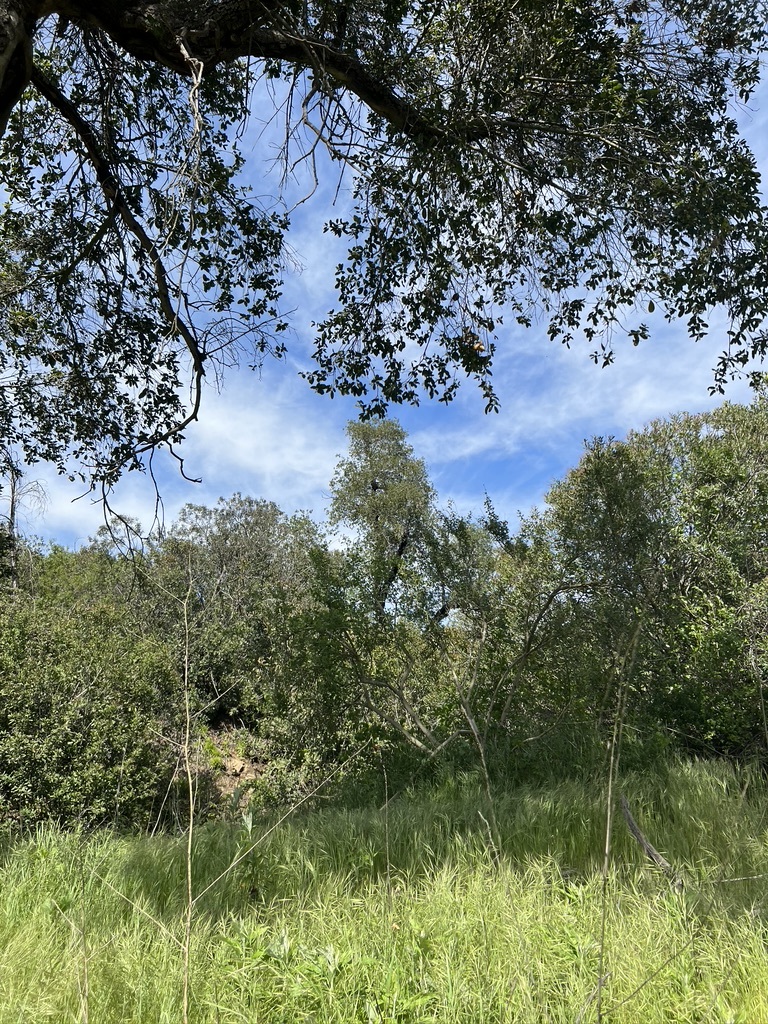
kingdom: Plantae
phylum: Tracheophyta
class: Magnoliopsida
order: Fagales
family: Fagaceae
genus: Quercus
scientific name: Quercus agrifolia
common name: California live oak
